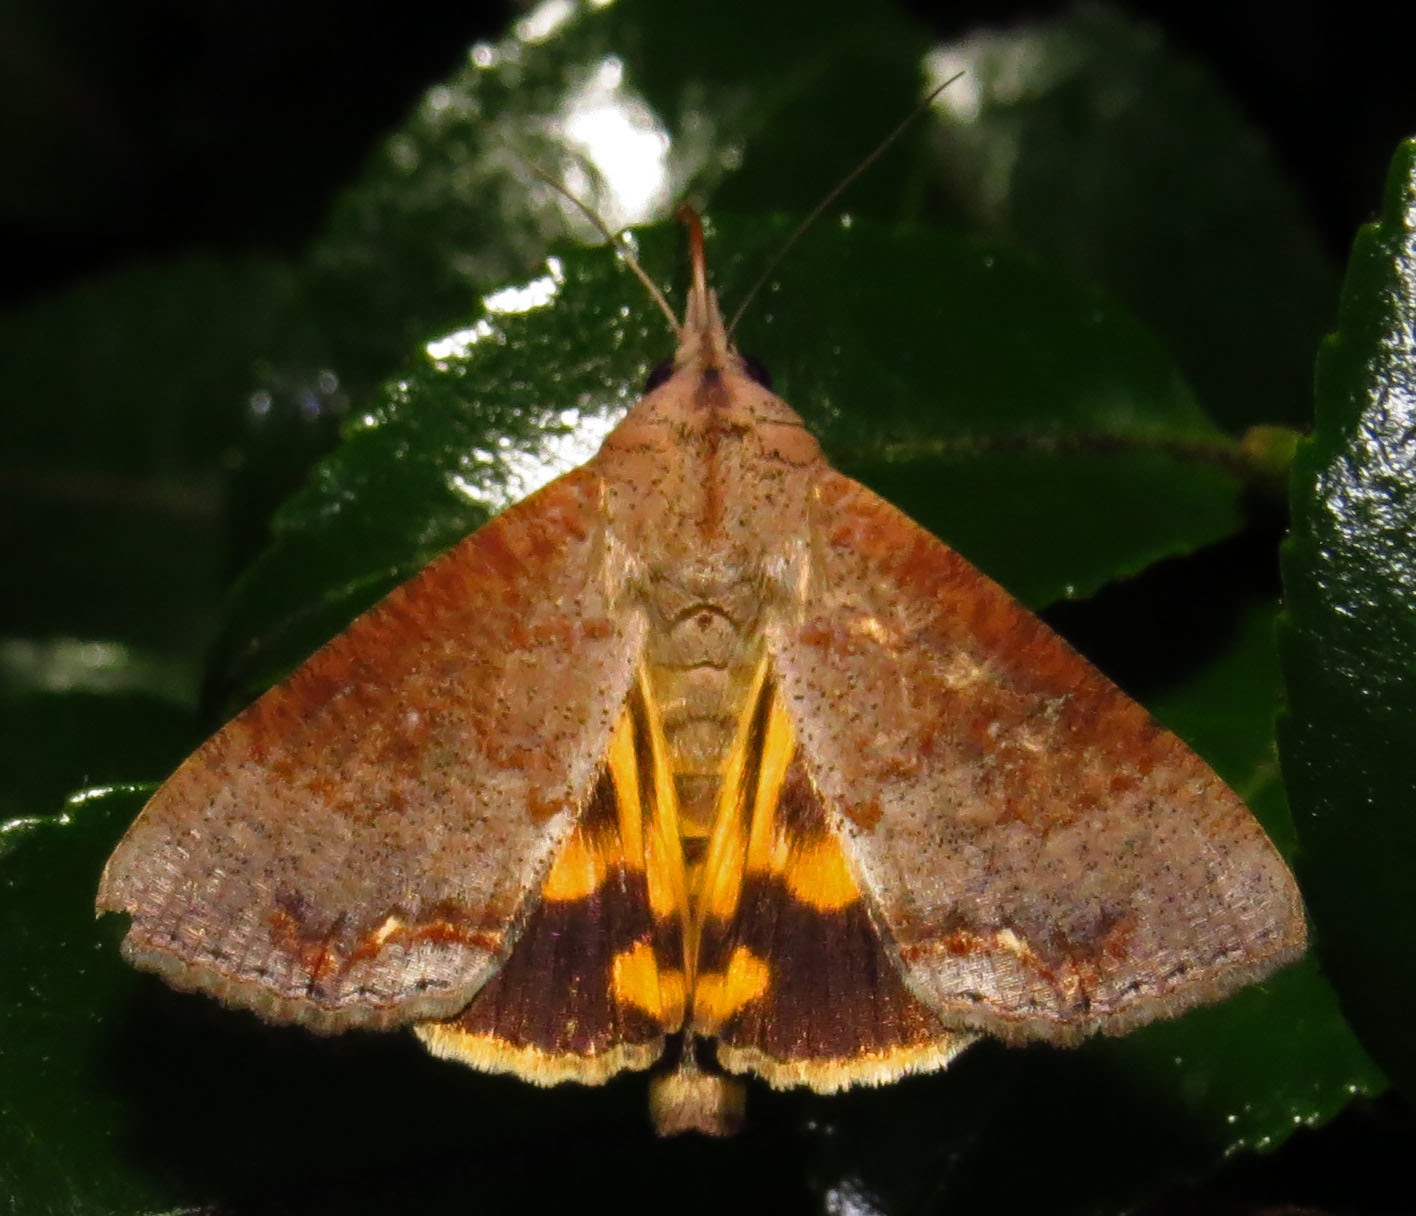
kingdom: Animalia
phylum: Arthropoda
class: Insecta
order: Lepidoptera
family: Erebidae
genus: Hypocala
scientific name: Hypocala andremona
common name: Hypocala moth
